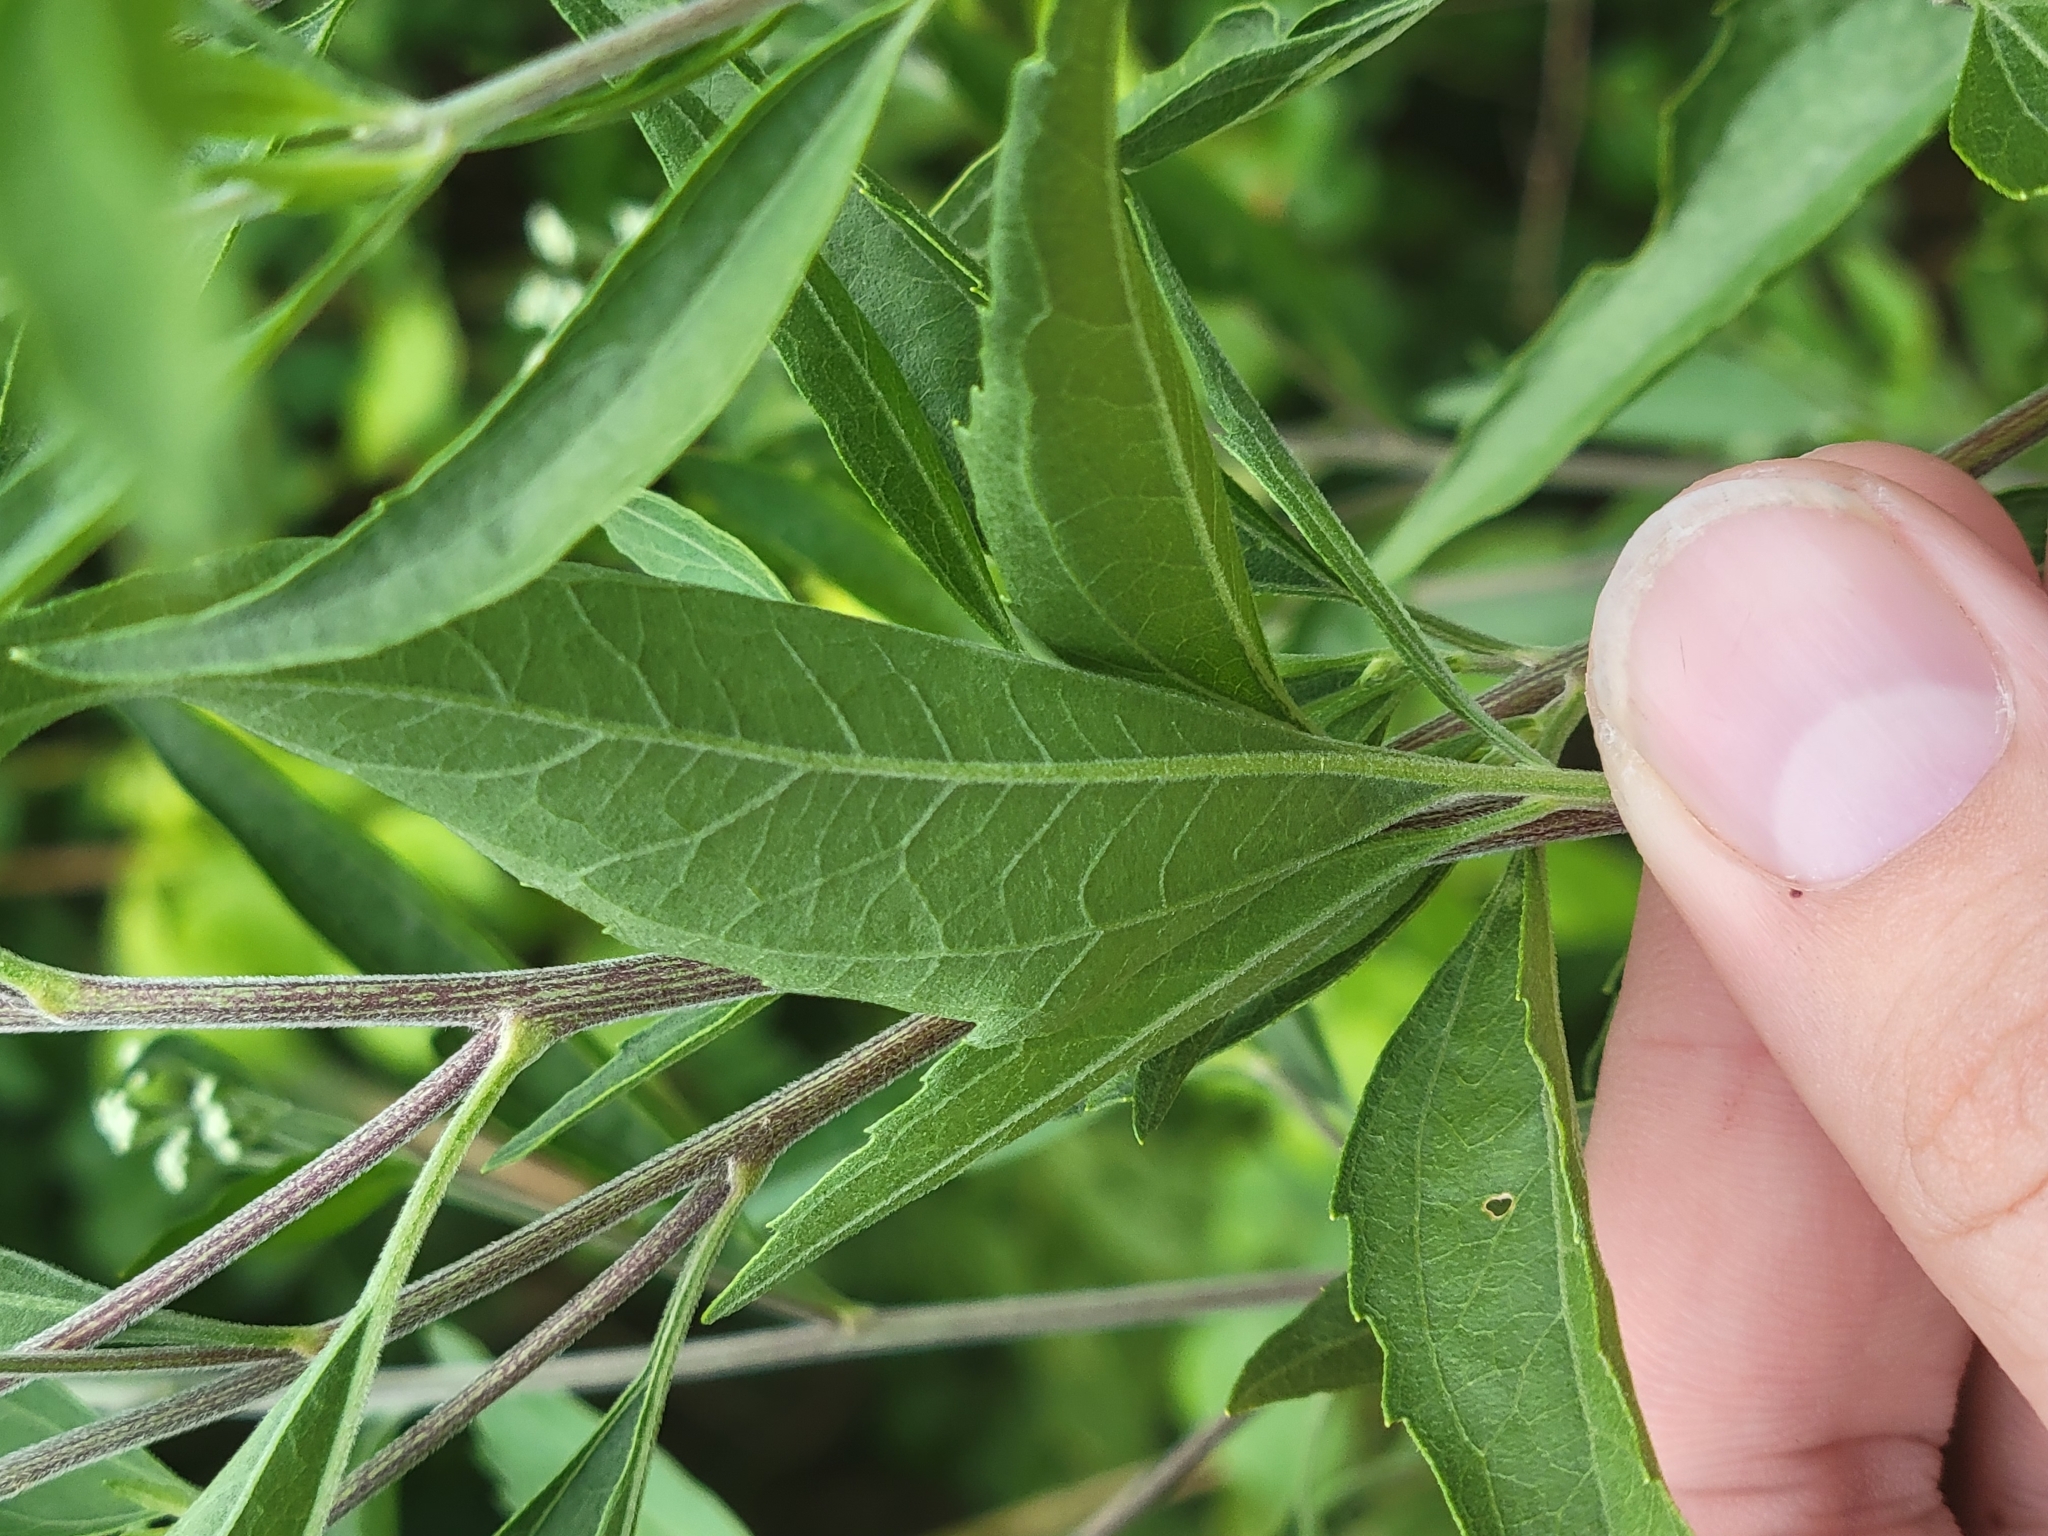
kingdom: Plantae
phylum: Tracheophyta
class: Magnoliopsida
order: Asterales
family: Asteraceae
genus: Eupatorium
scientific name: Eupatorium serotinum
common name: Late boneset
